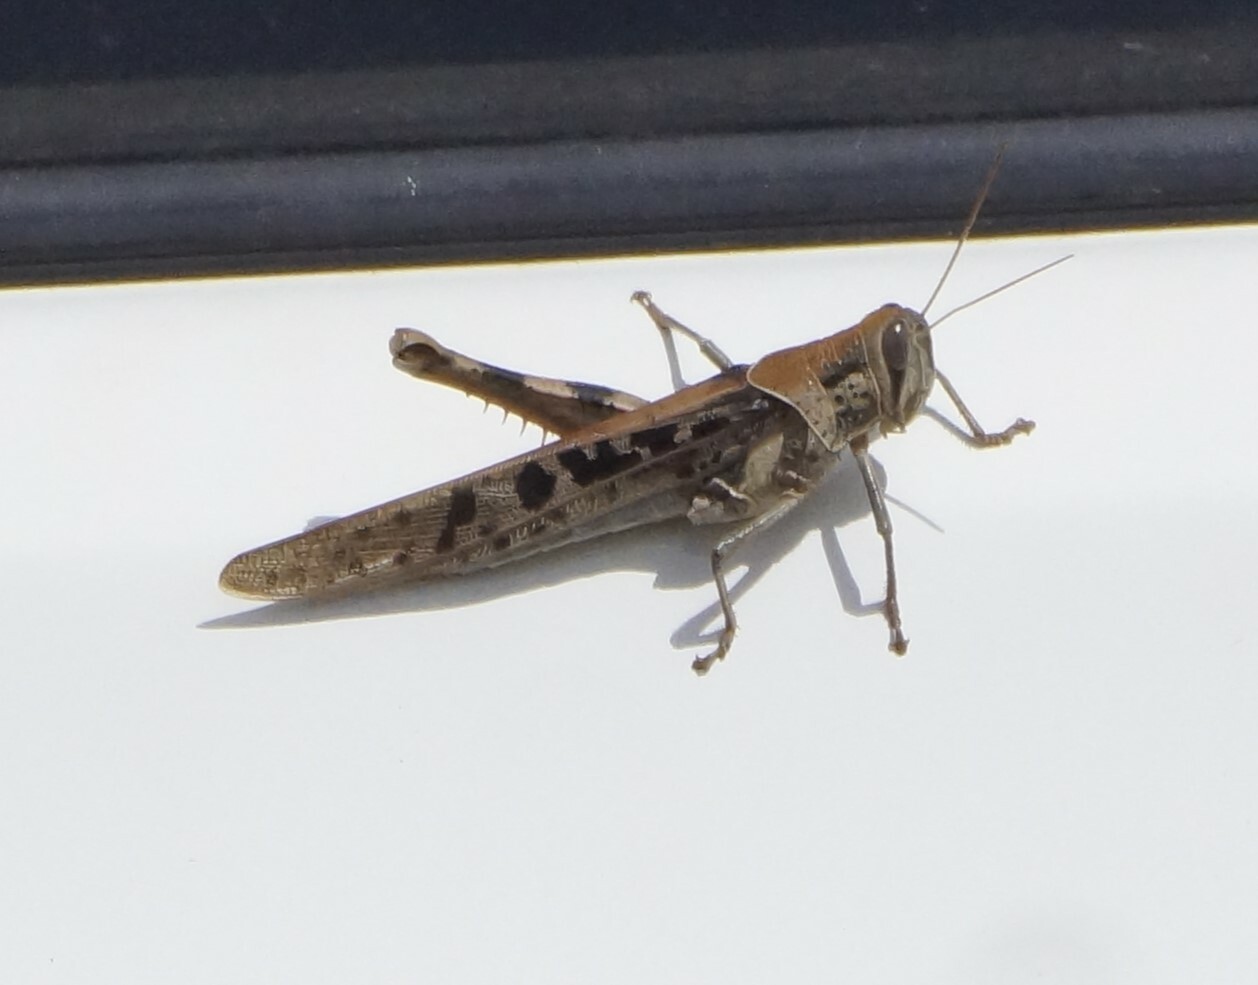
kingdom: Animalia
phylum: Arthropoda
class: Insecta
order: Orthoptera
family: Acrididae
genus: Austracris
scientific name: Austracris proxima
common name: Confusing spur-throated locust
